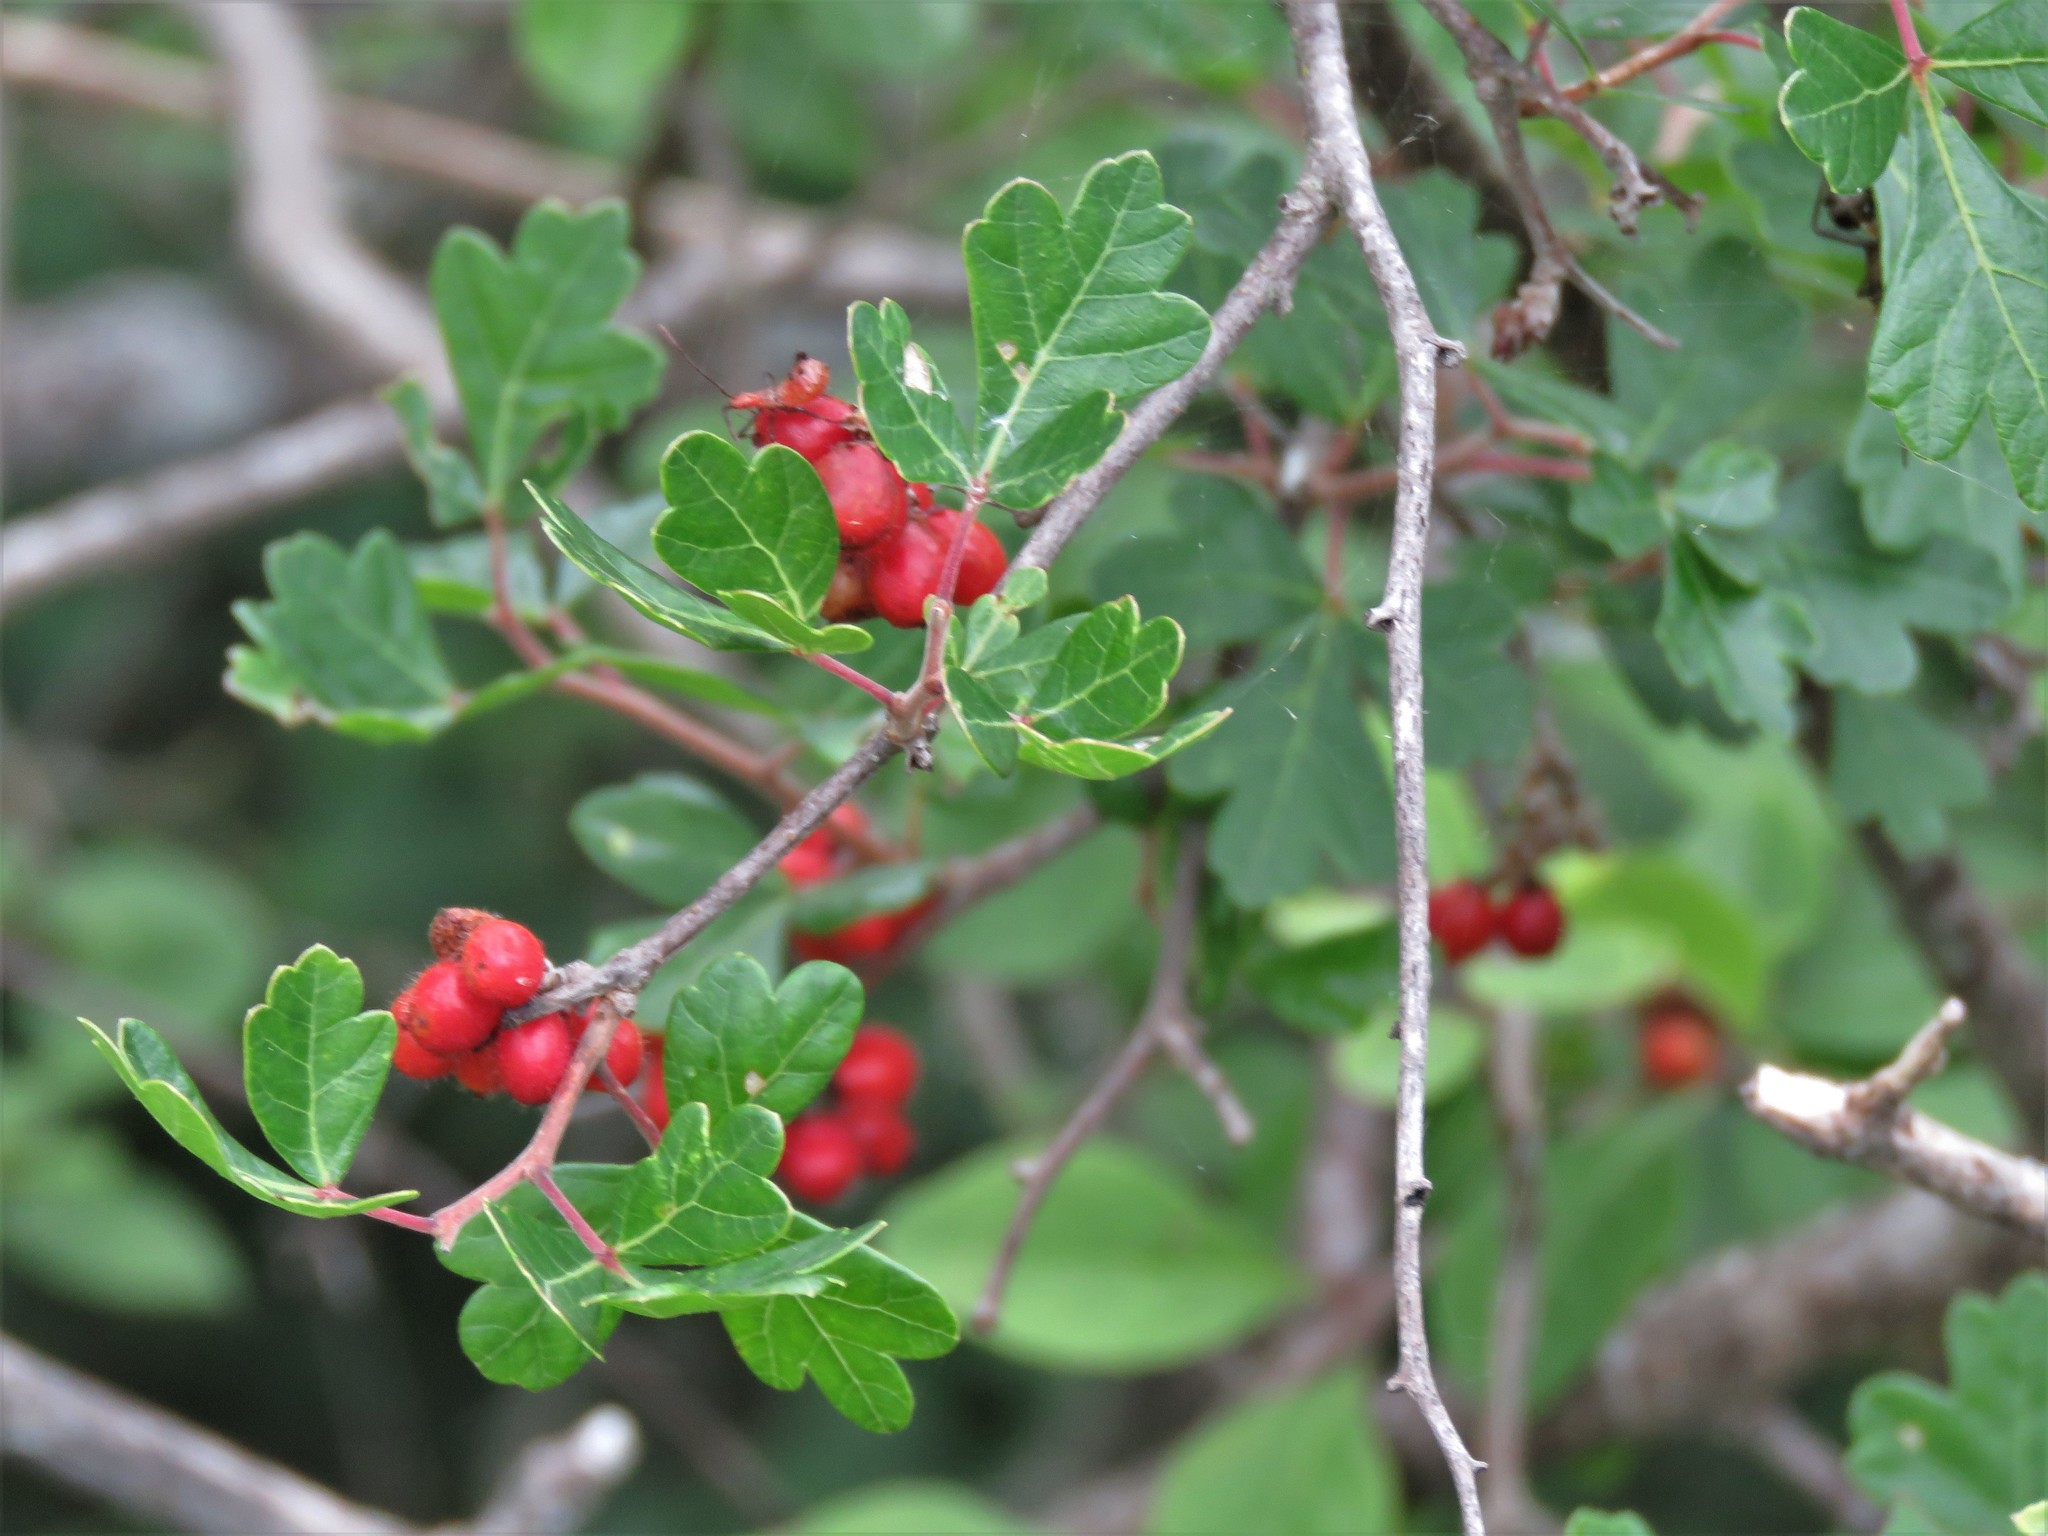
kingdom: Plantae
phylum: Tracheophyta
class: Magnoliopsida
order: Sapindales
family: Anacardiaceae
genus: Rhus
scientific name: Rhus aromatica
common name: Aromatic sumac
